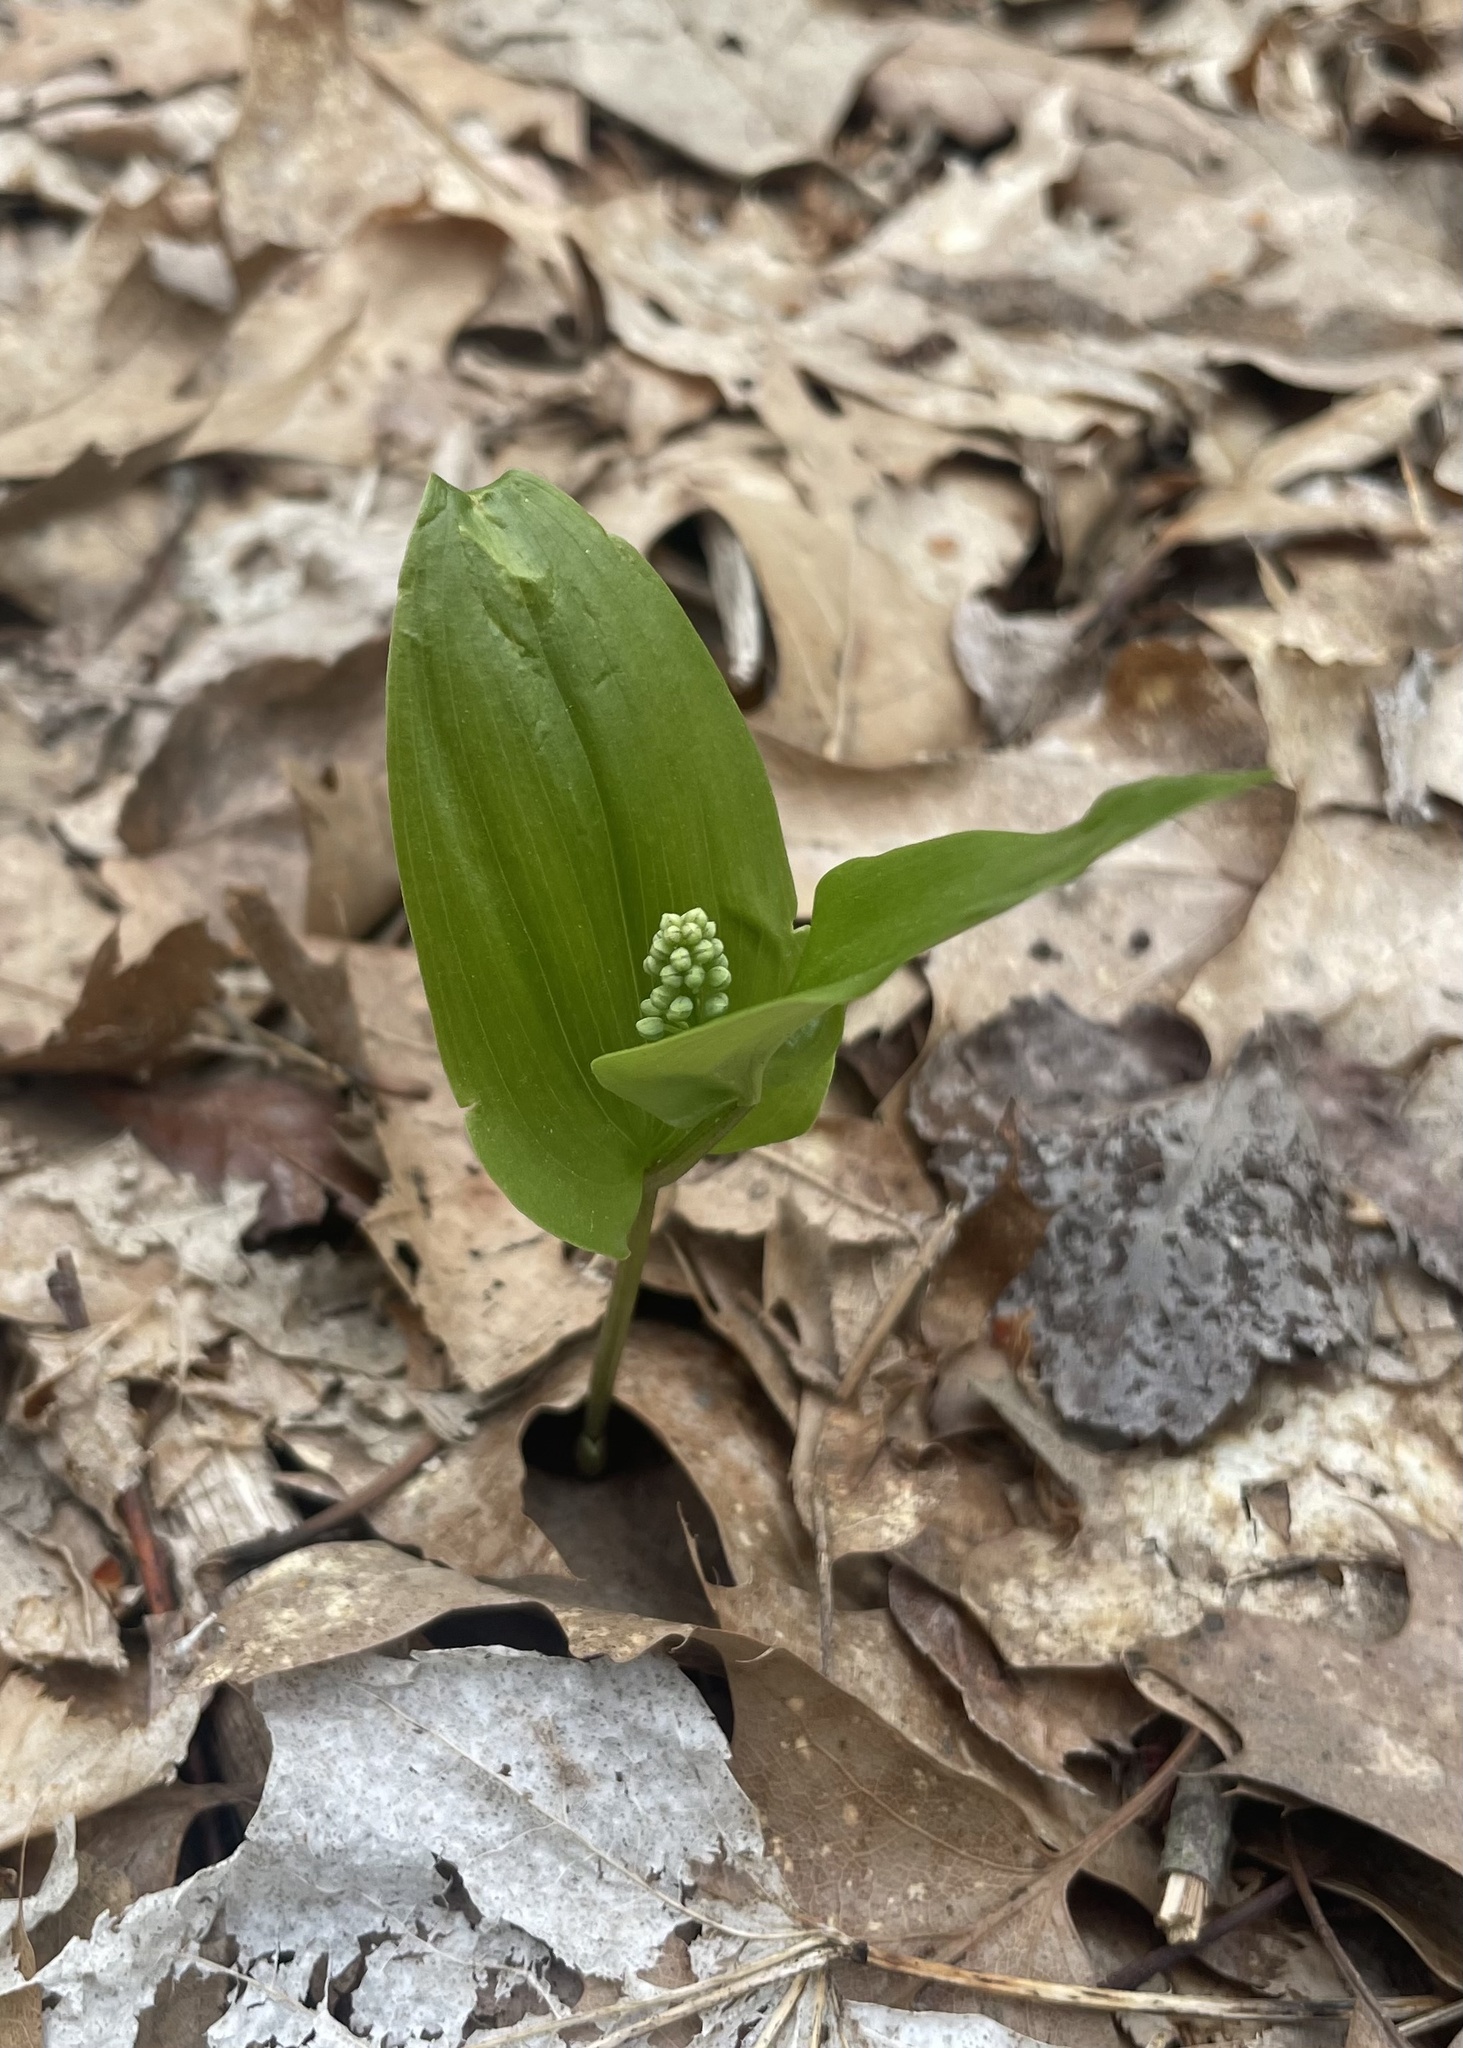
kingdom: Plantae
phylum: Tracheophyta
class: Liliopsida
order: Asparagales
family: Asparagaceae
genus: Maianthemum
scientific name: Maianthemum canadense
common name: False lily-of-the-valley
